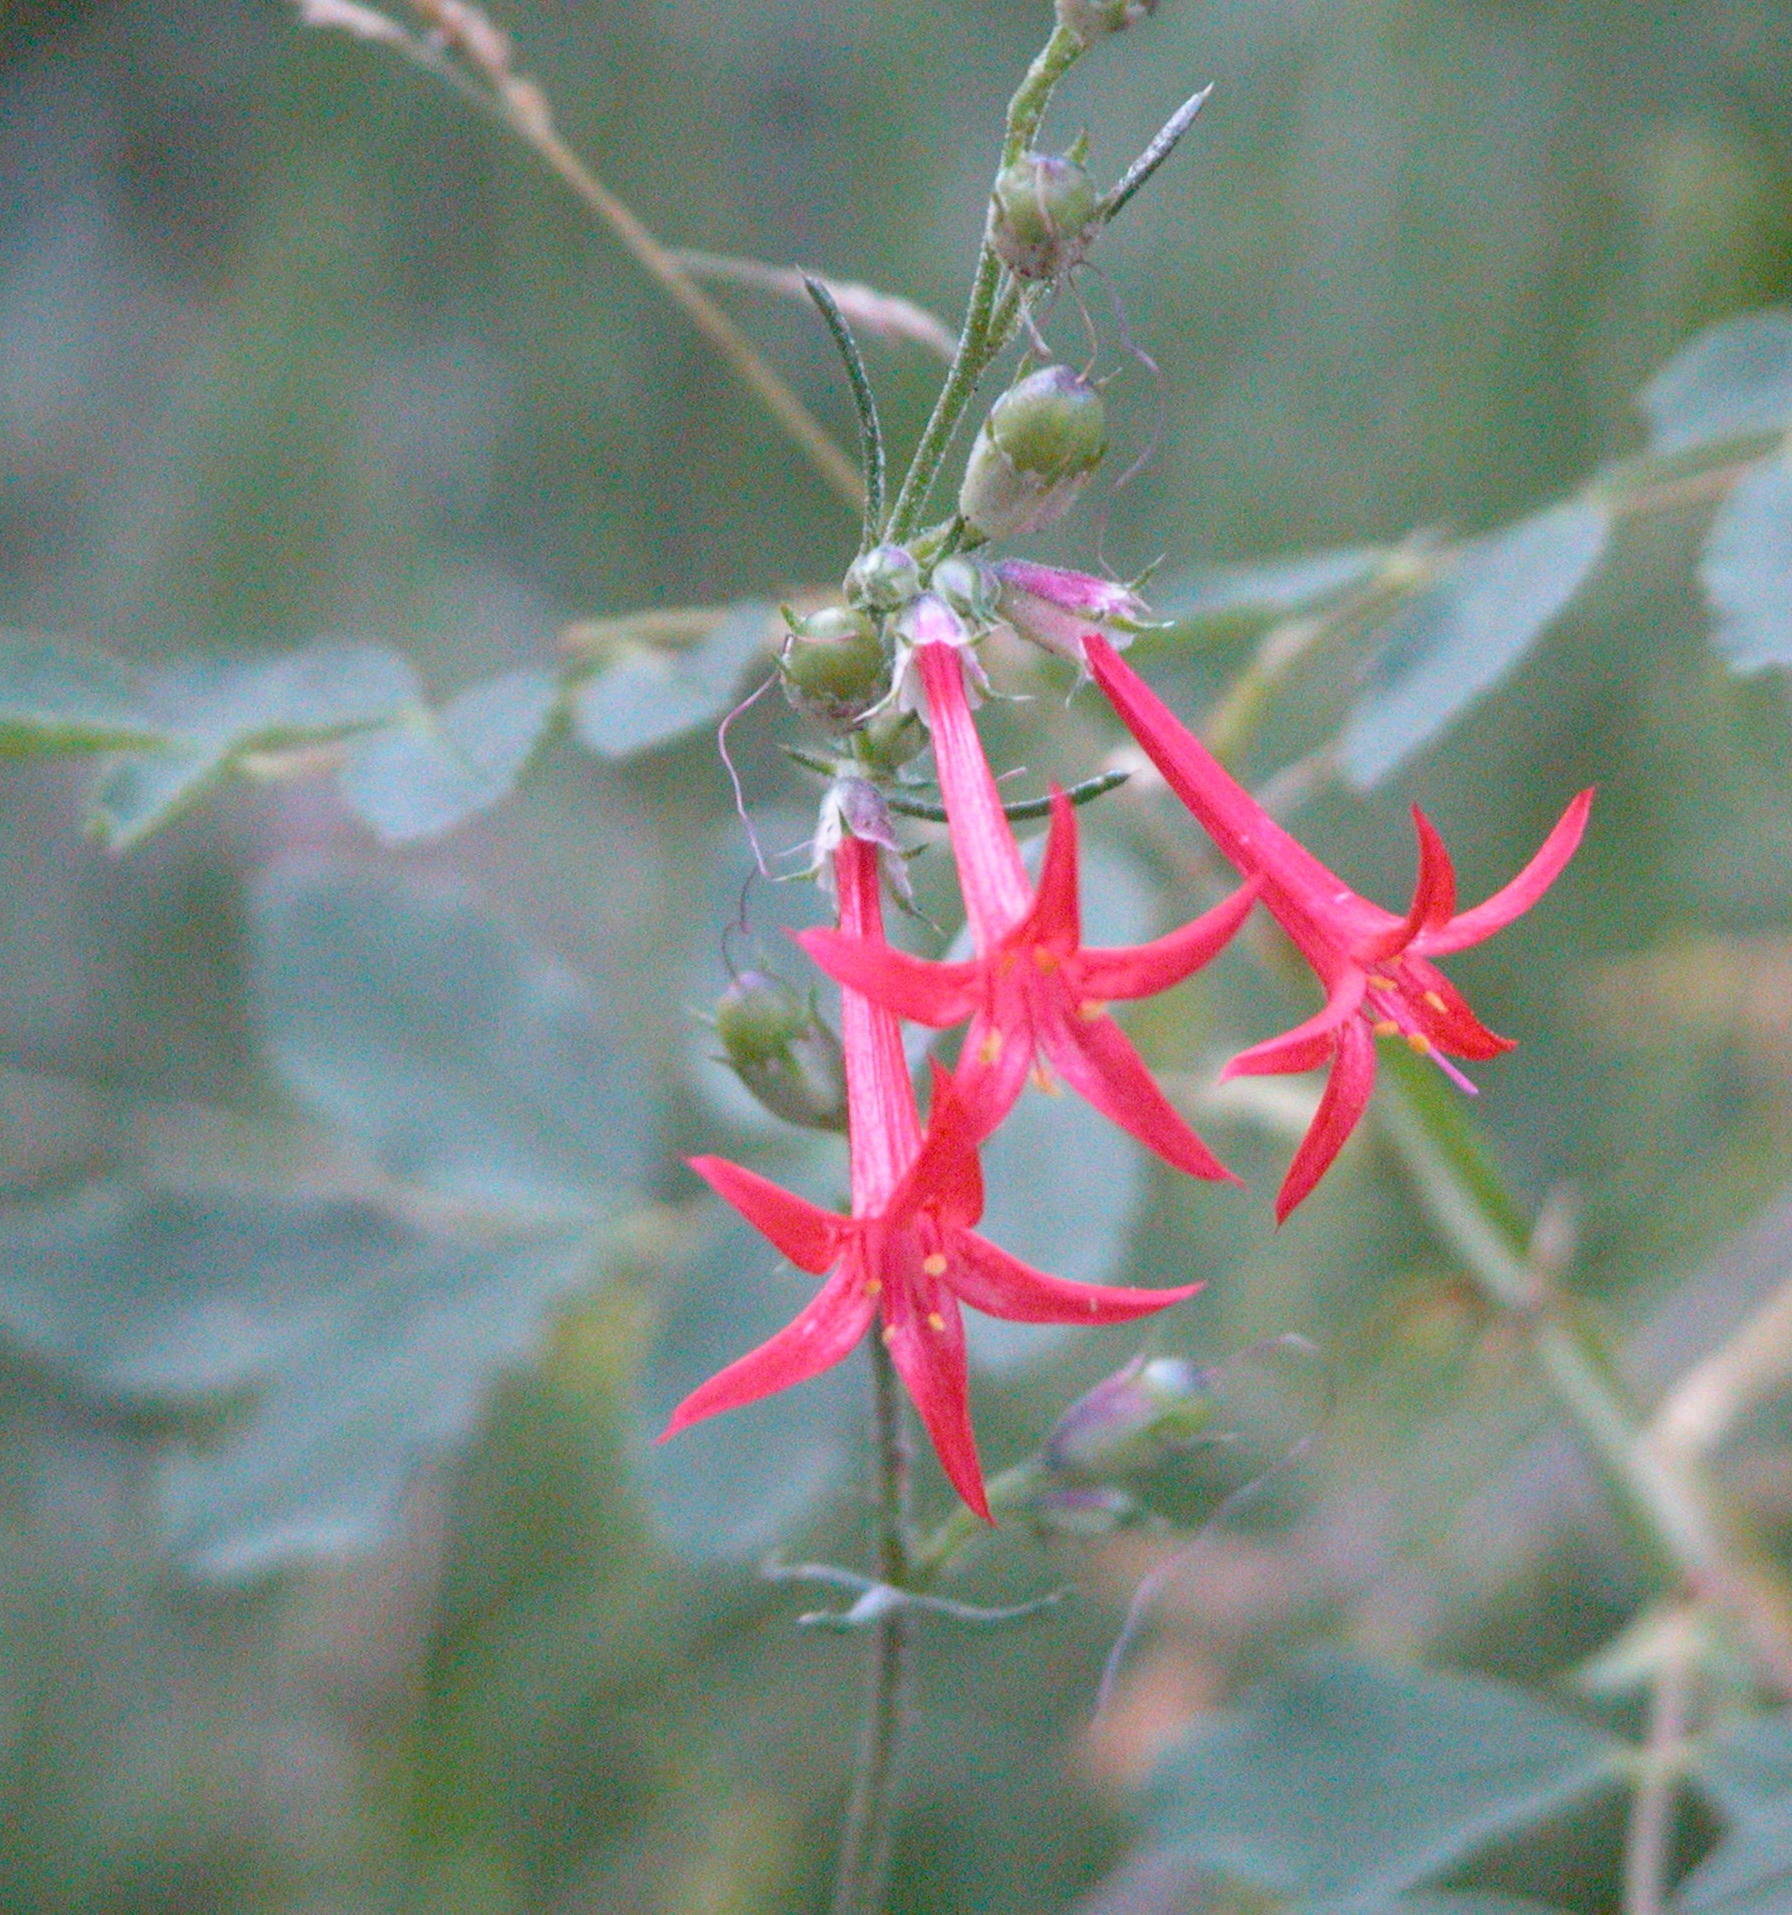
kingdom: Plantae
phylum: Tracheophyta
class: Magnoliopsida
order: Ericales
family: Polemoniaceae
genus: Ipomopsis
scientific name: Ipomopsis aggregata
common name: Scarlet gilia
